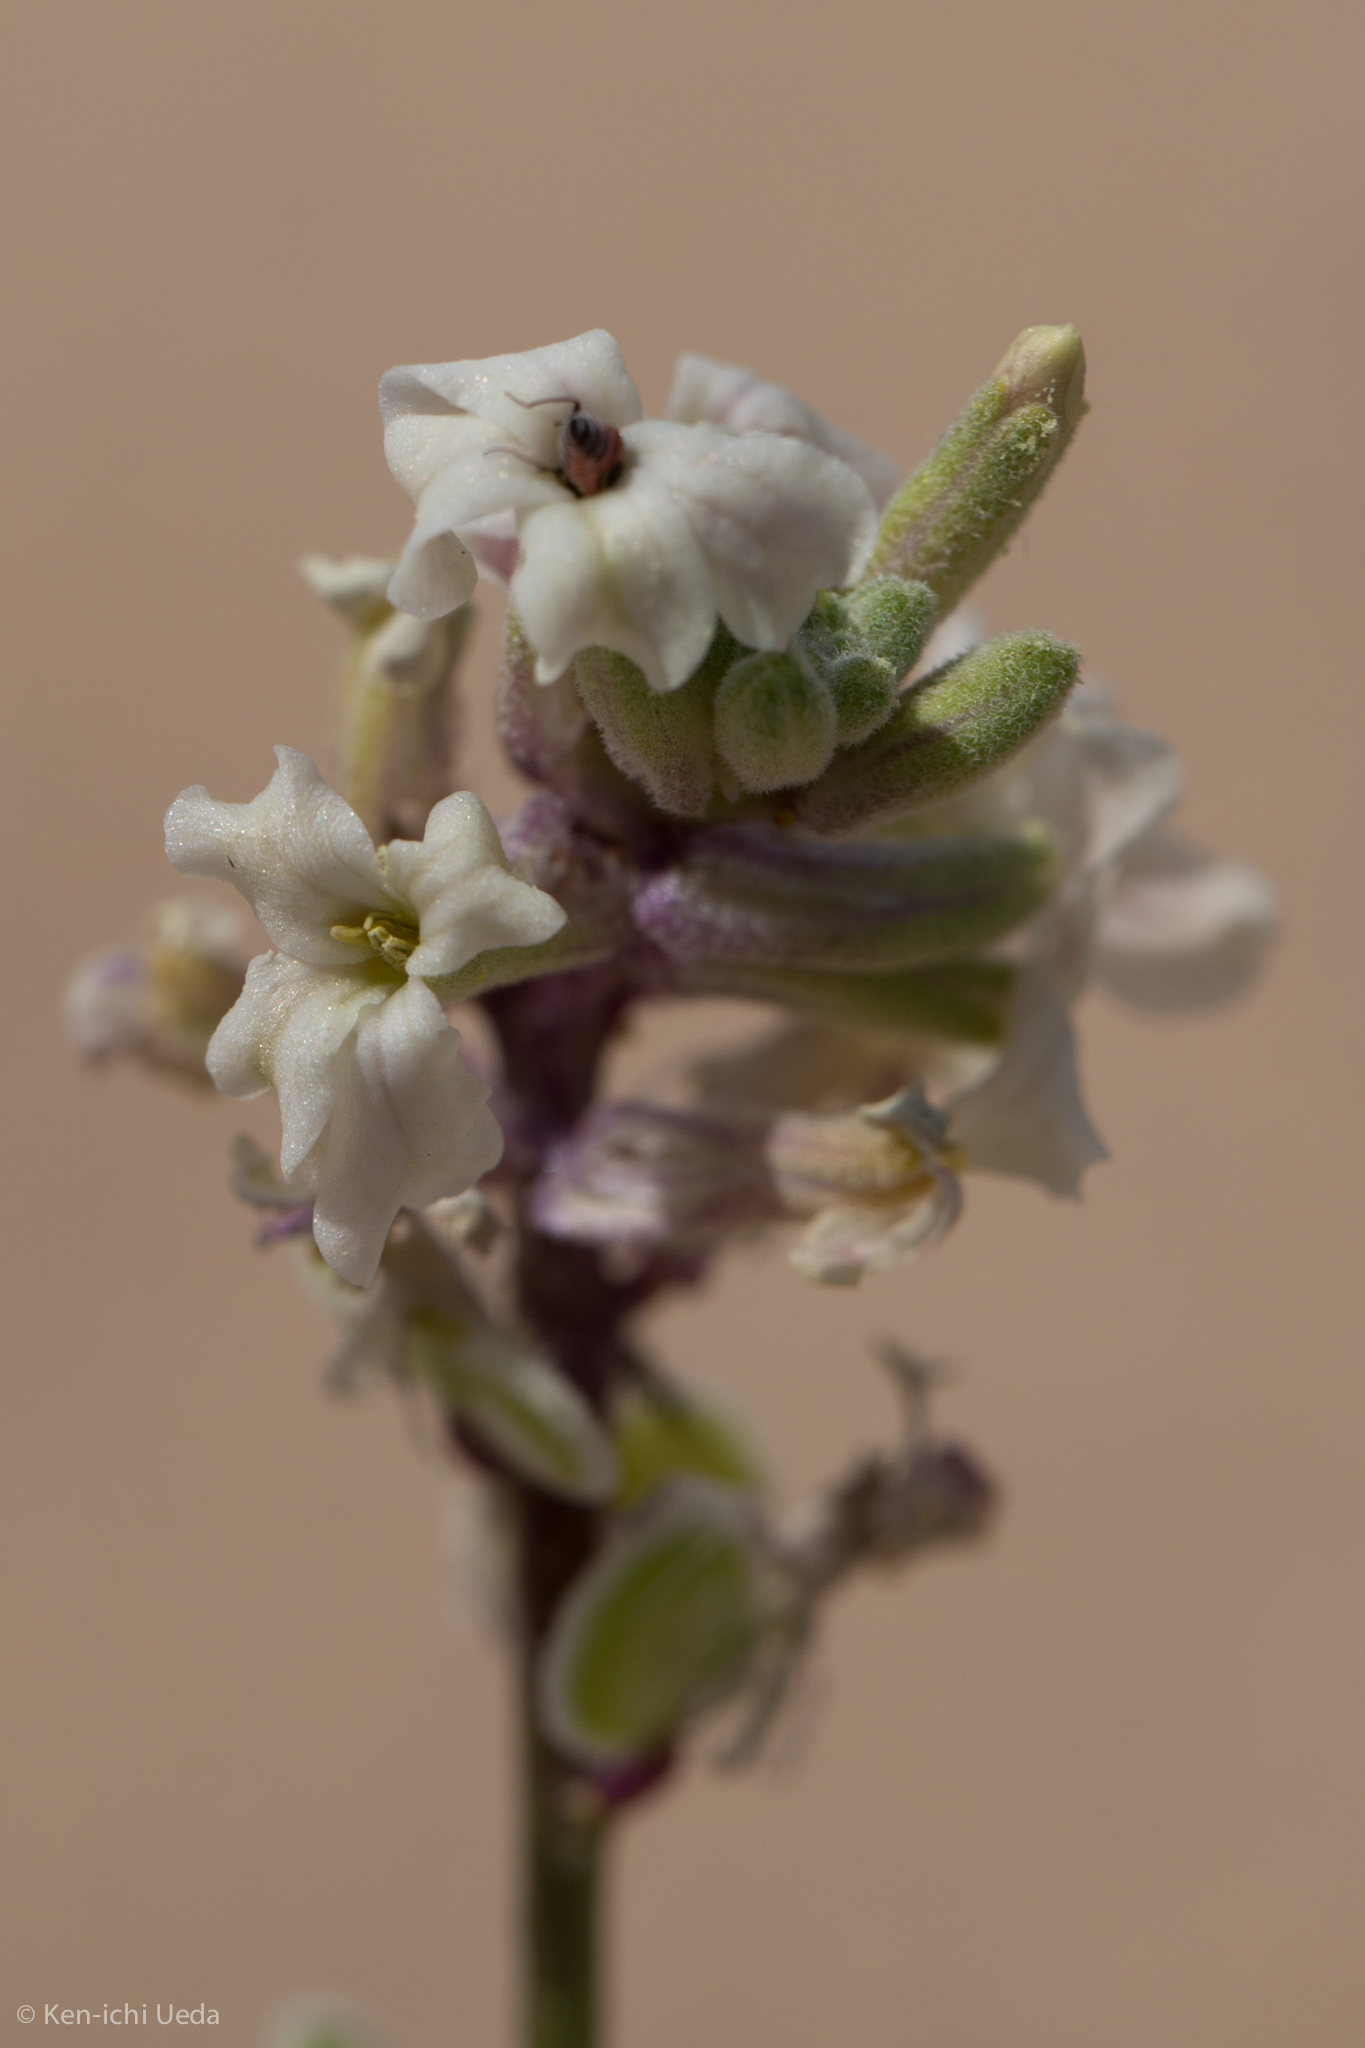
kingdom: Plantae
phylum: Tracheophyta
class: Magnoliopsida
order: Brassicales
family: Brassicaceae
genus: Dithyrea
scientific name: Dithyrea californica
